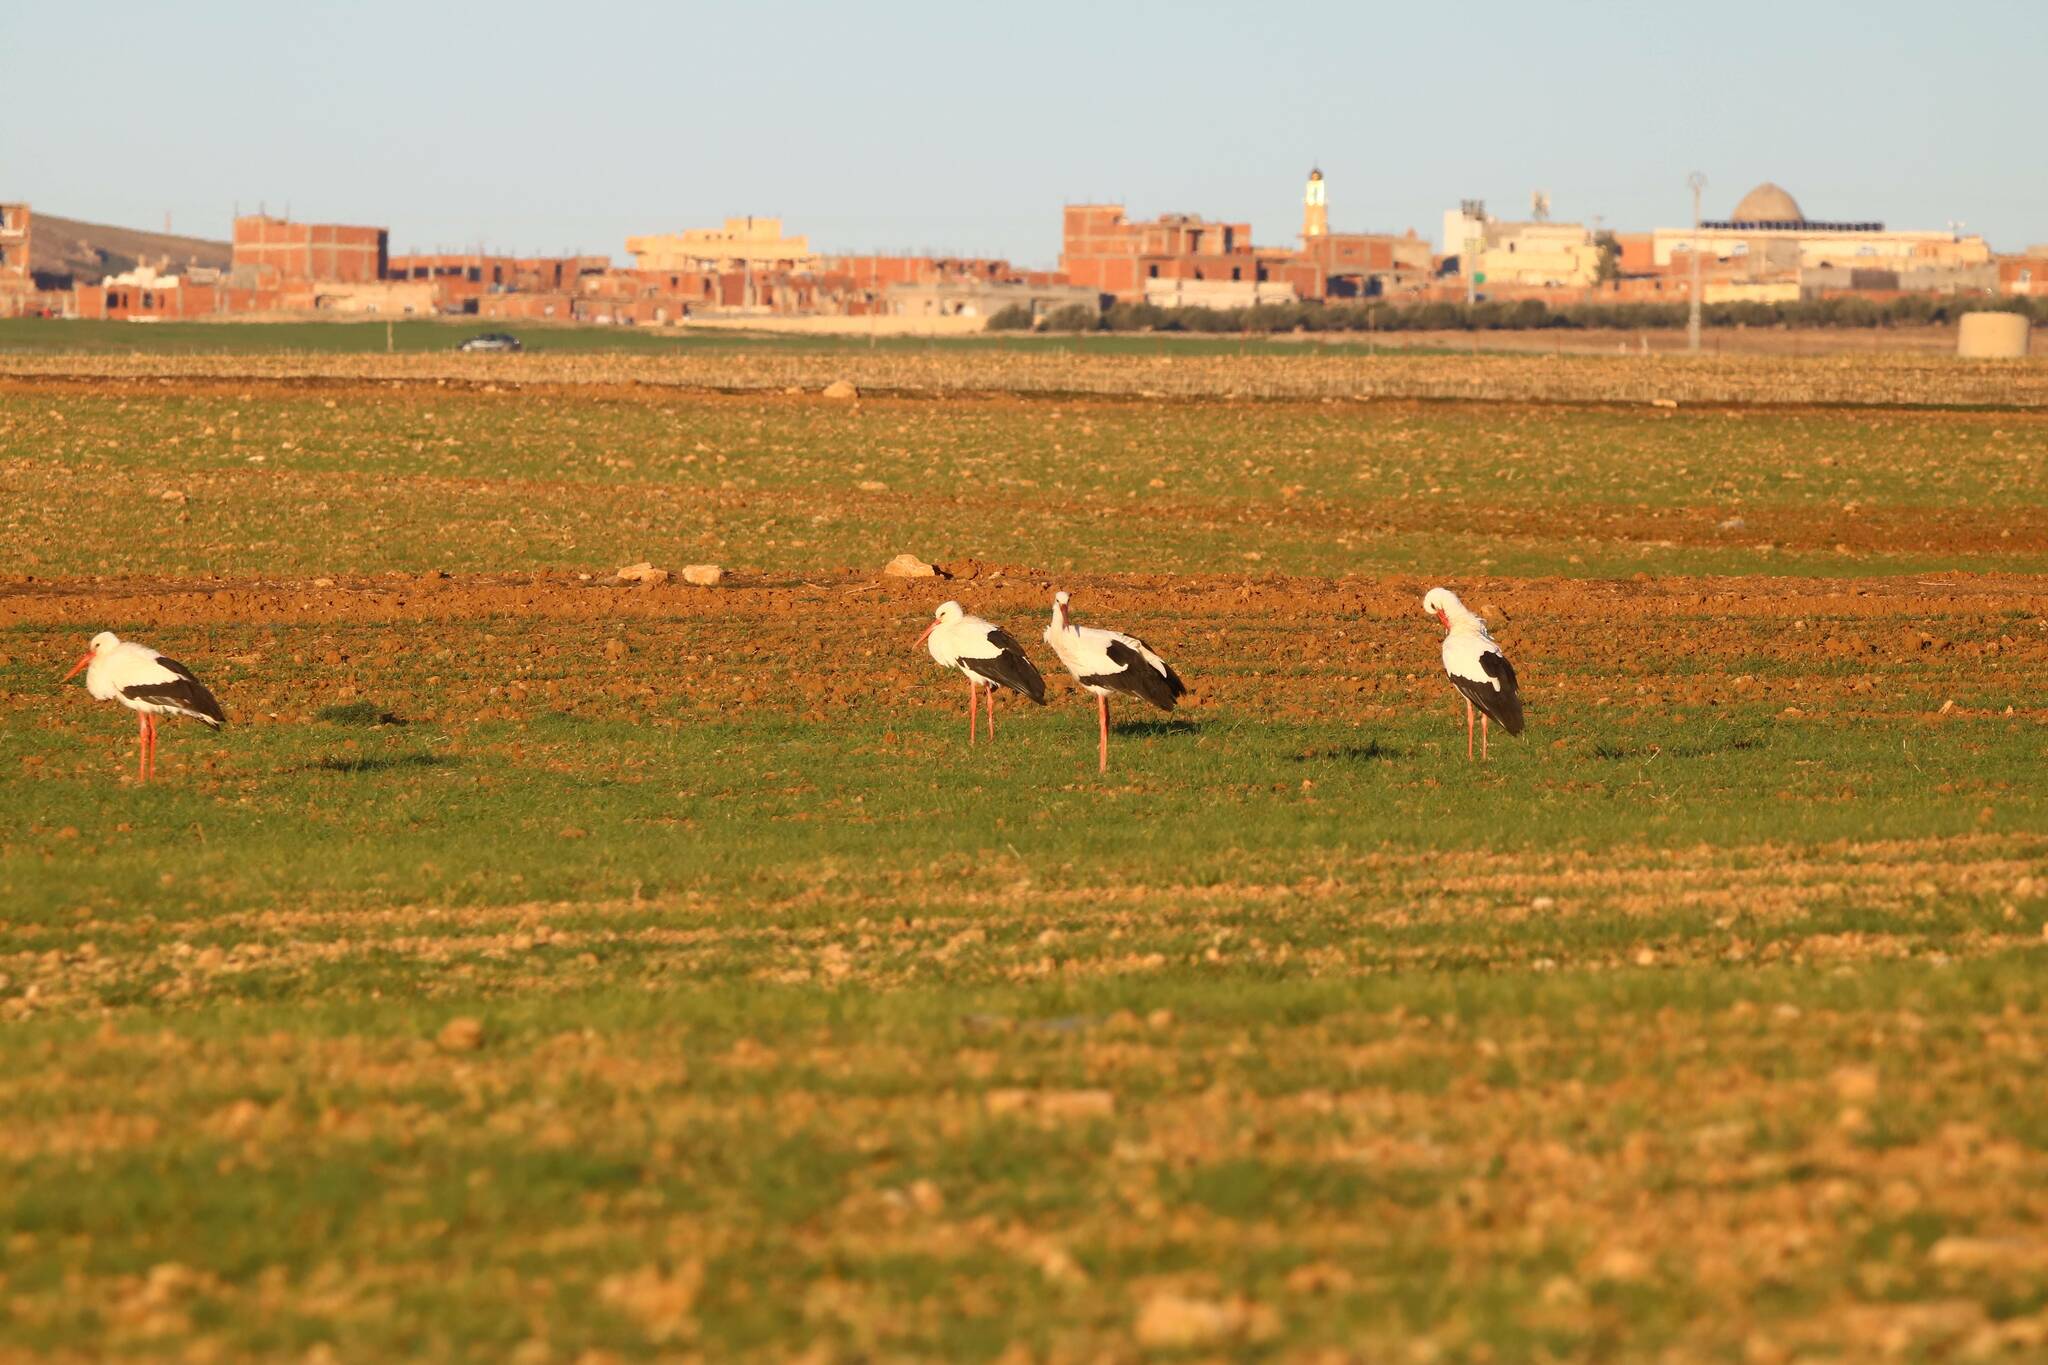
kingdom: Animalia
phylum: Chordata
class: Aves
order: Ciconiiformes
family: Ciconiidae
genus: Ciconia
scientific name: Ciconia ciconia
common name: White stork
